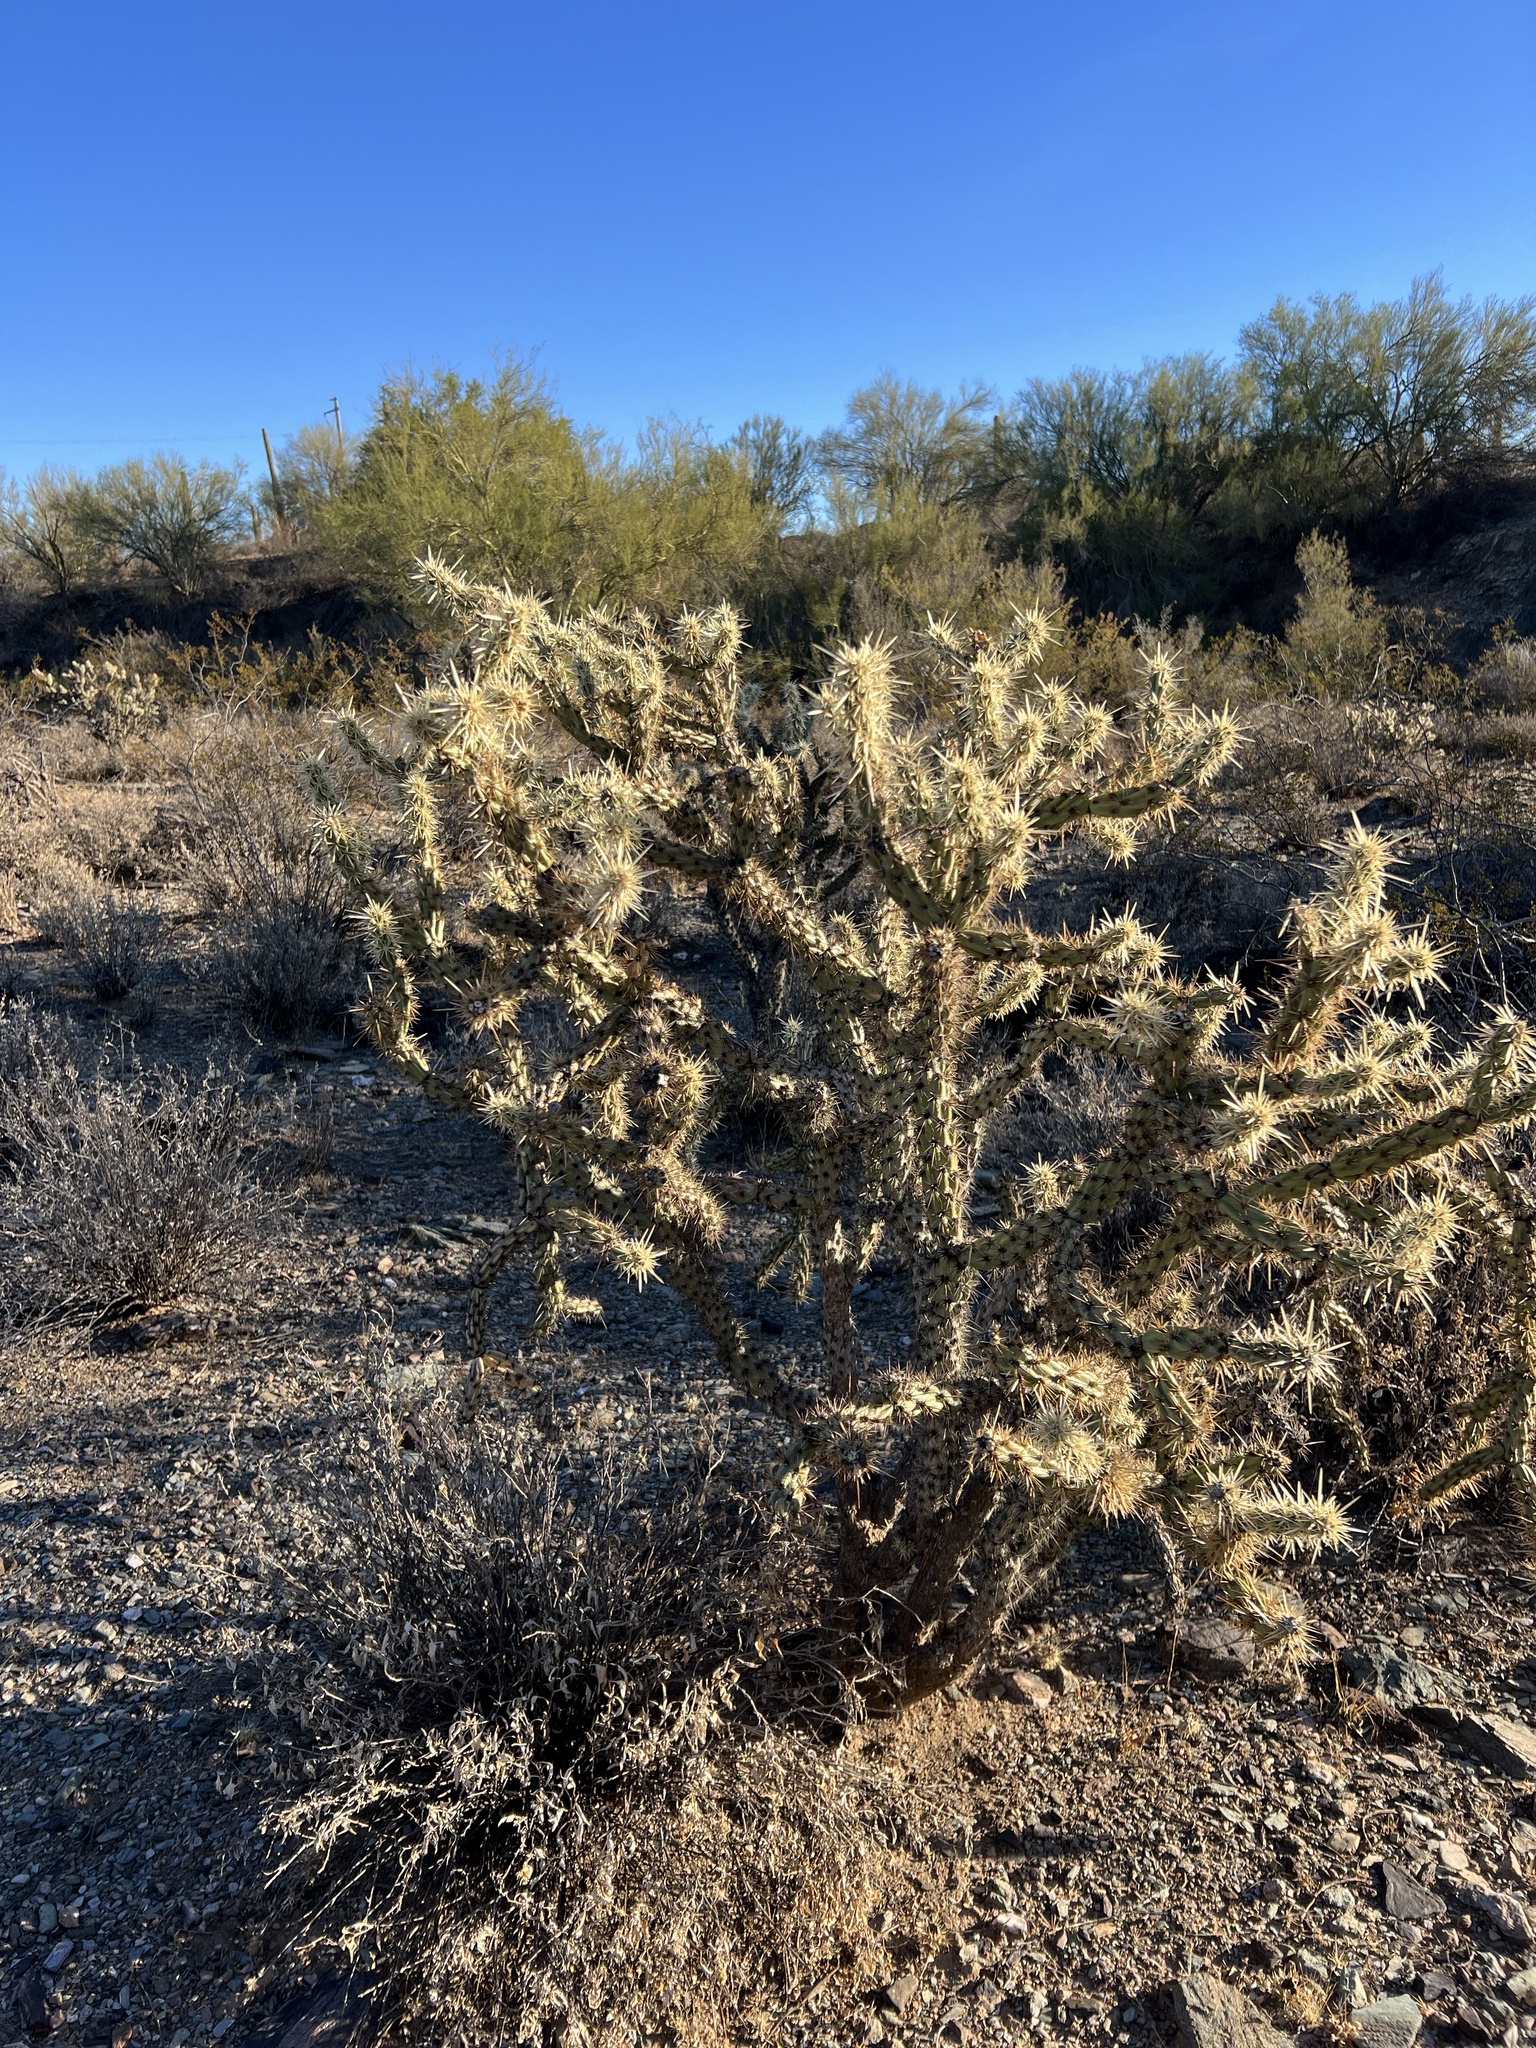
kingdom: Plantae
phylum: Tracheophyta
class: Magnoliopsida
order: Caryophyllales
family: Cactaceae
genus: Cylindropuntia
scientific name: Cylindropuntia acanthocarpa
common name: Buckhorn cholla
